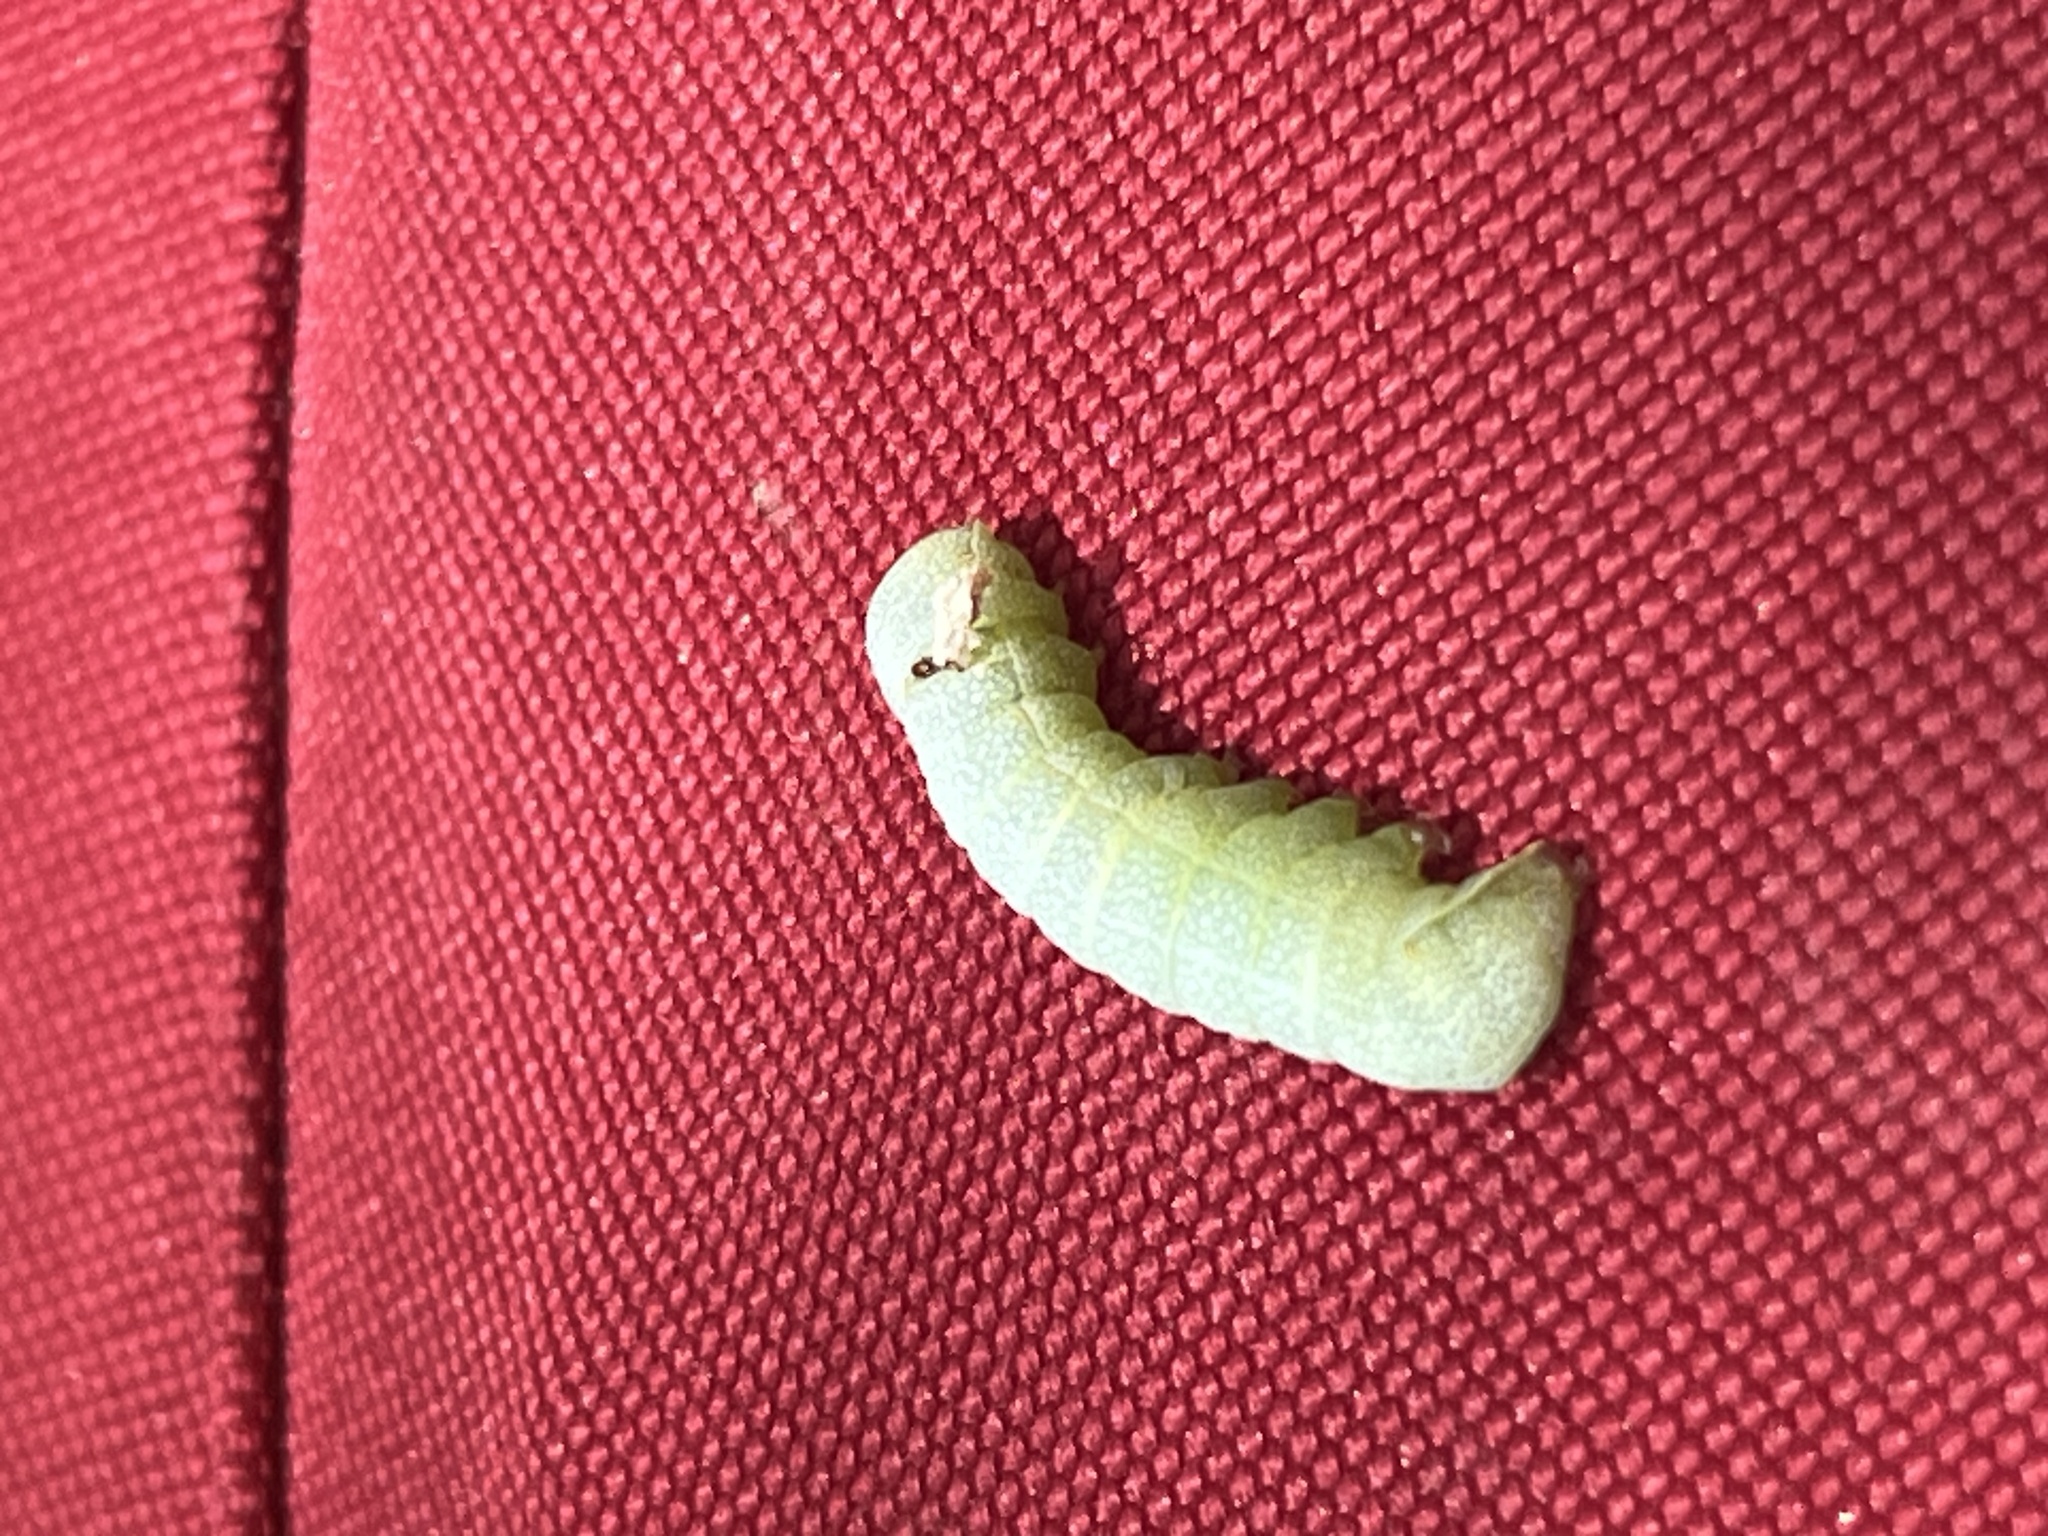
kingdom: Animalia
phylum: Arthropoda
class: Insecta
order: Lepidoptera
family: Noctuidae
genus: Meterana
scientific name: Meterana decorata
